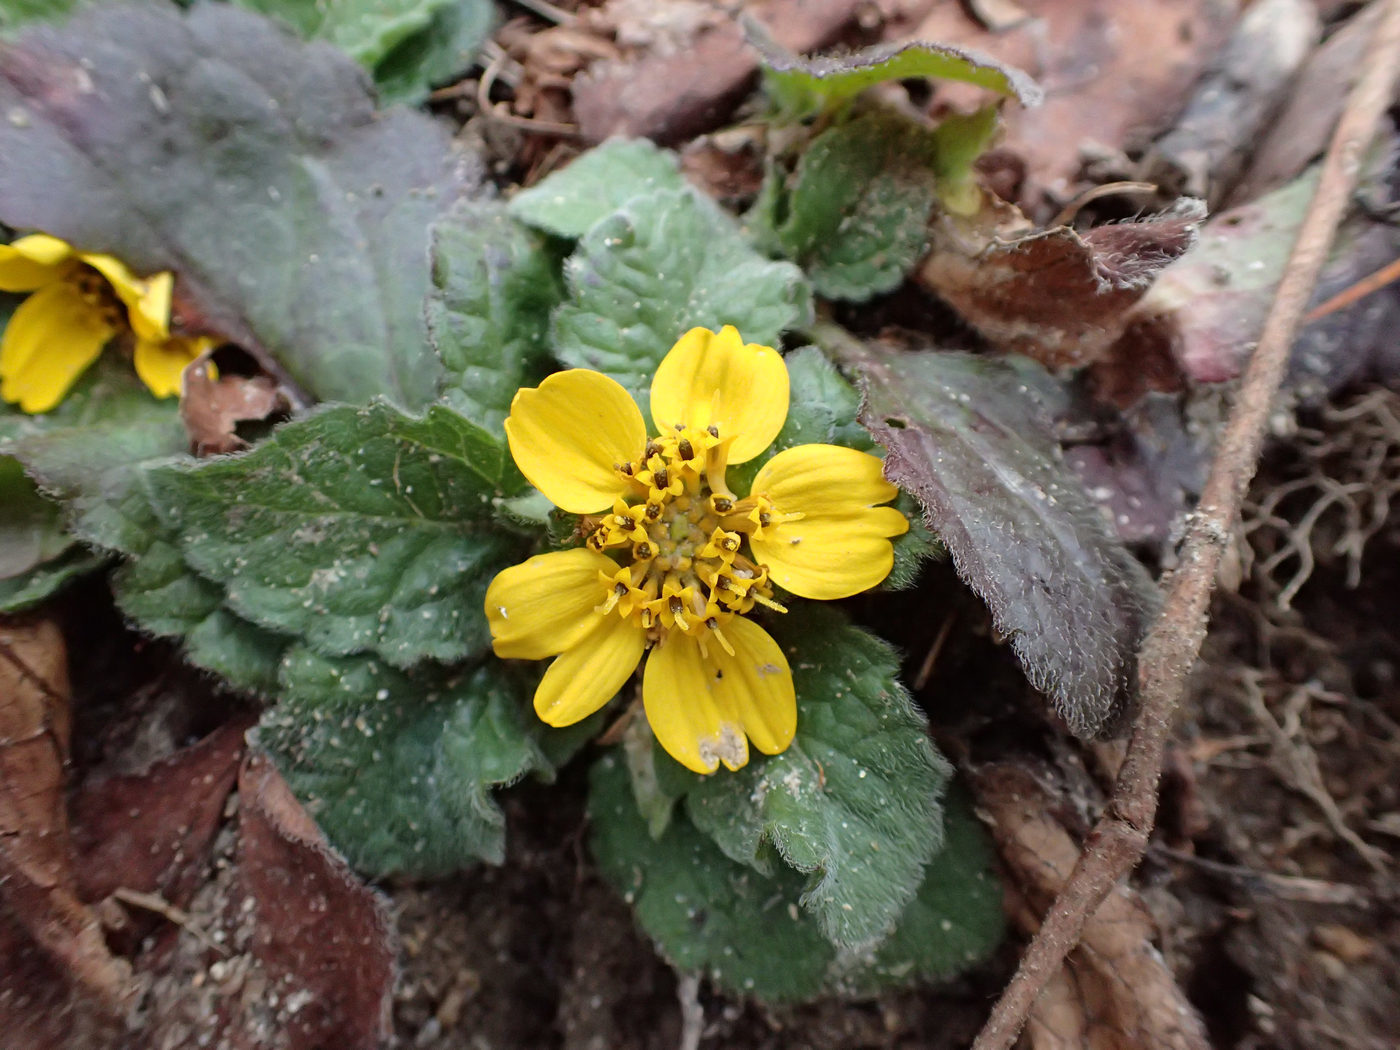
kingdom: Plantae
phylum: Tracheophyta
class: Magnoliopsida
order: Asterales
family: Asteraceae
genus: Chrysogonum
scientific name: Chrysogonum virginianum
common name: Golden-knee
